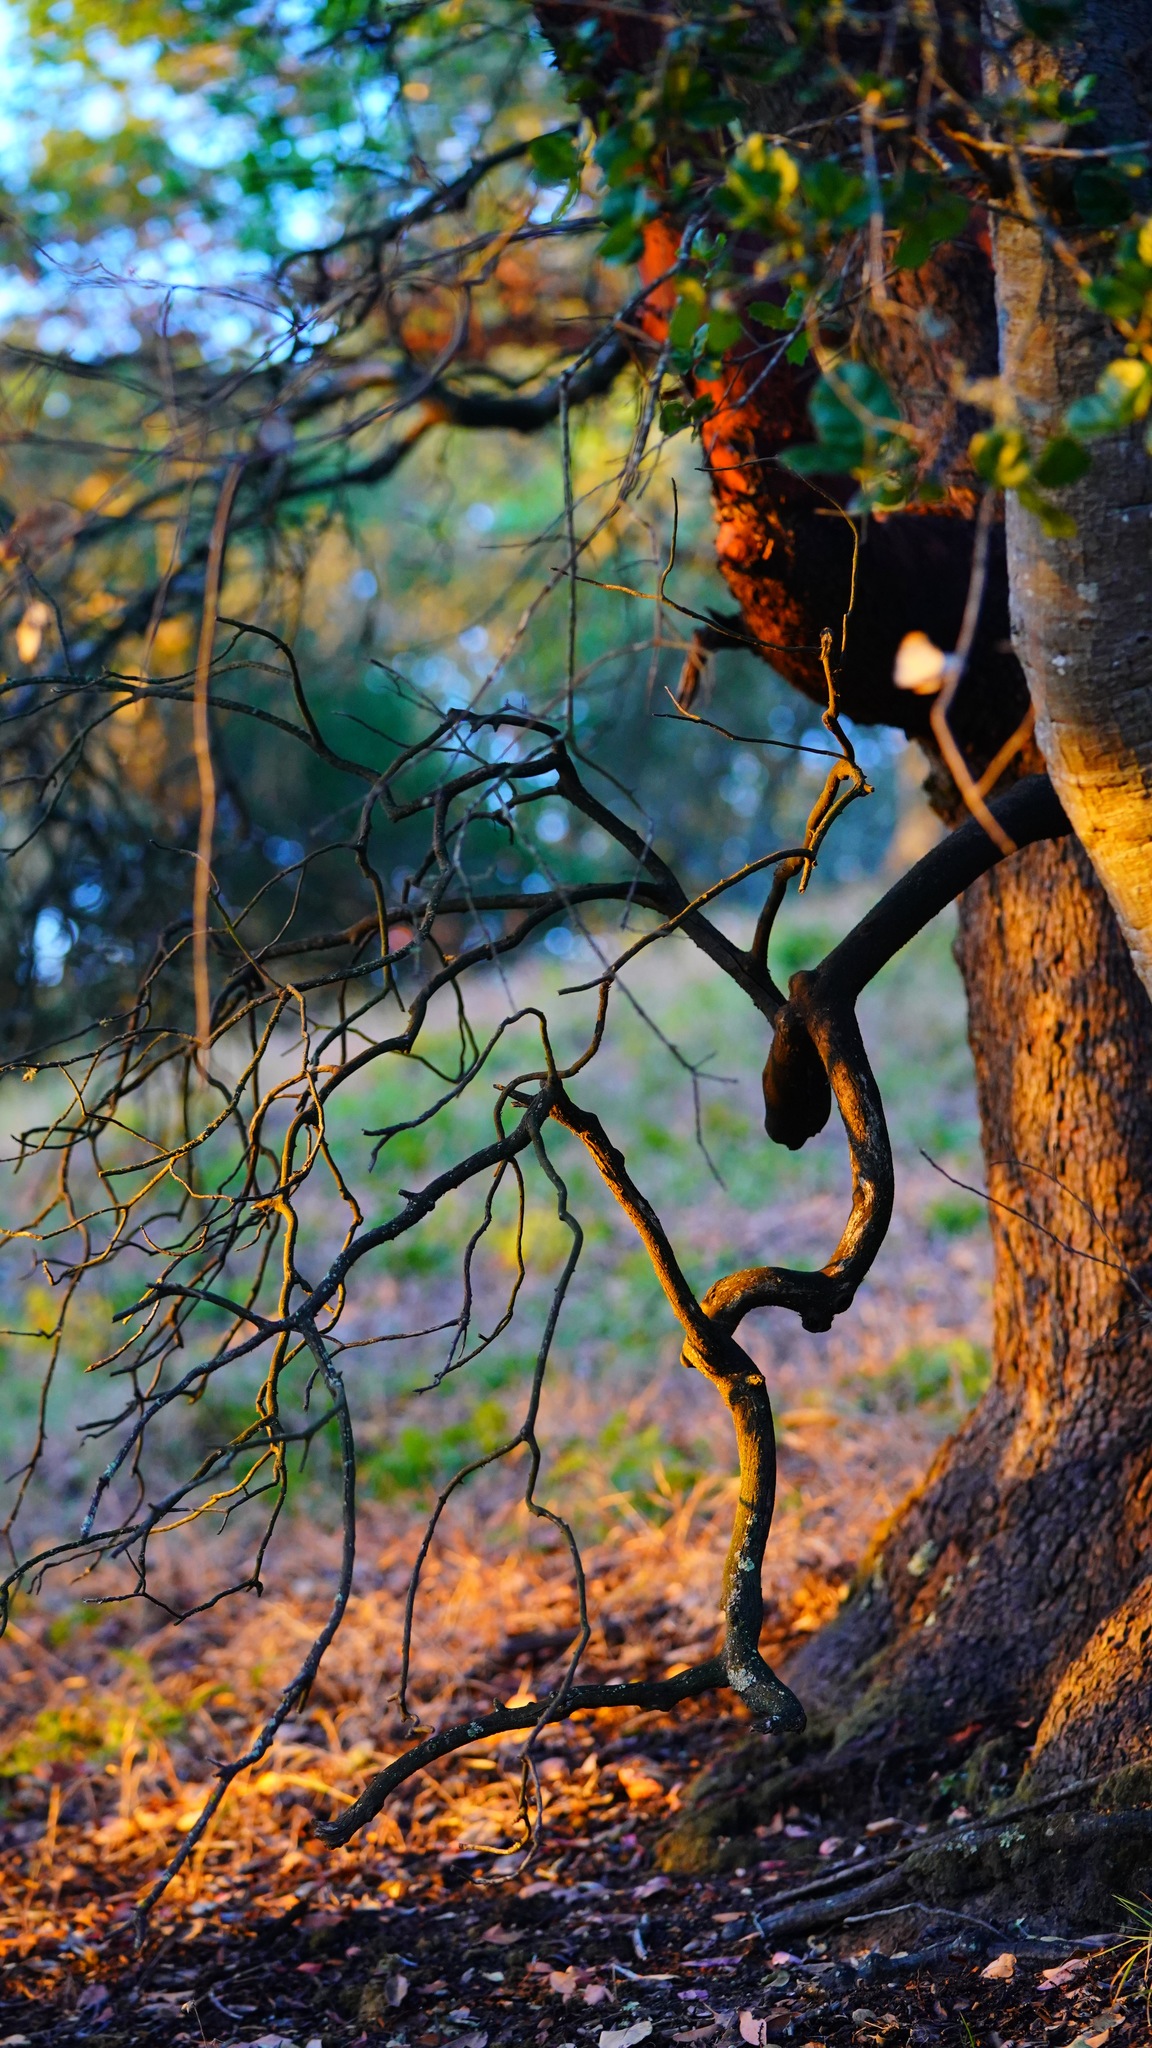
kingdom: Plantae
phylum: Tracheophyta
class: Magnoliopsida
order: Ericales
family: Ericaceae
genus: Arbutus
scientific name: Arbutus menziesii
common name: Pacific madrone
